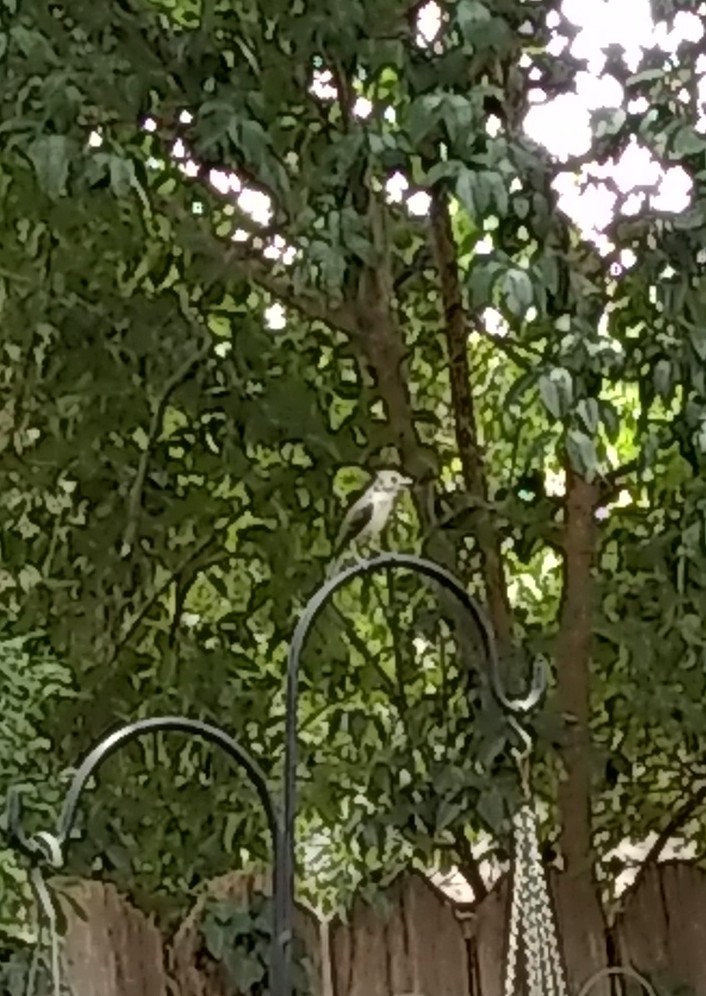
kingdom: Animalia
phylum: Chordata
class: Aves
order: Passeriformes
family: Paridae
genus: Baeolophus
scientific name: Baeolophus bicolor
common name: Tufted titmouse
